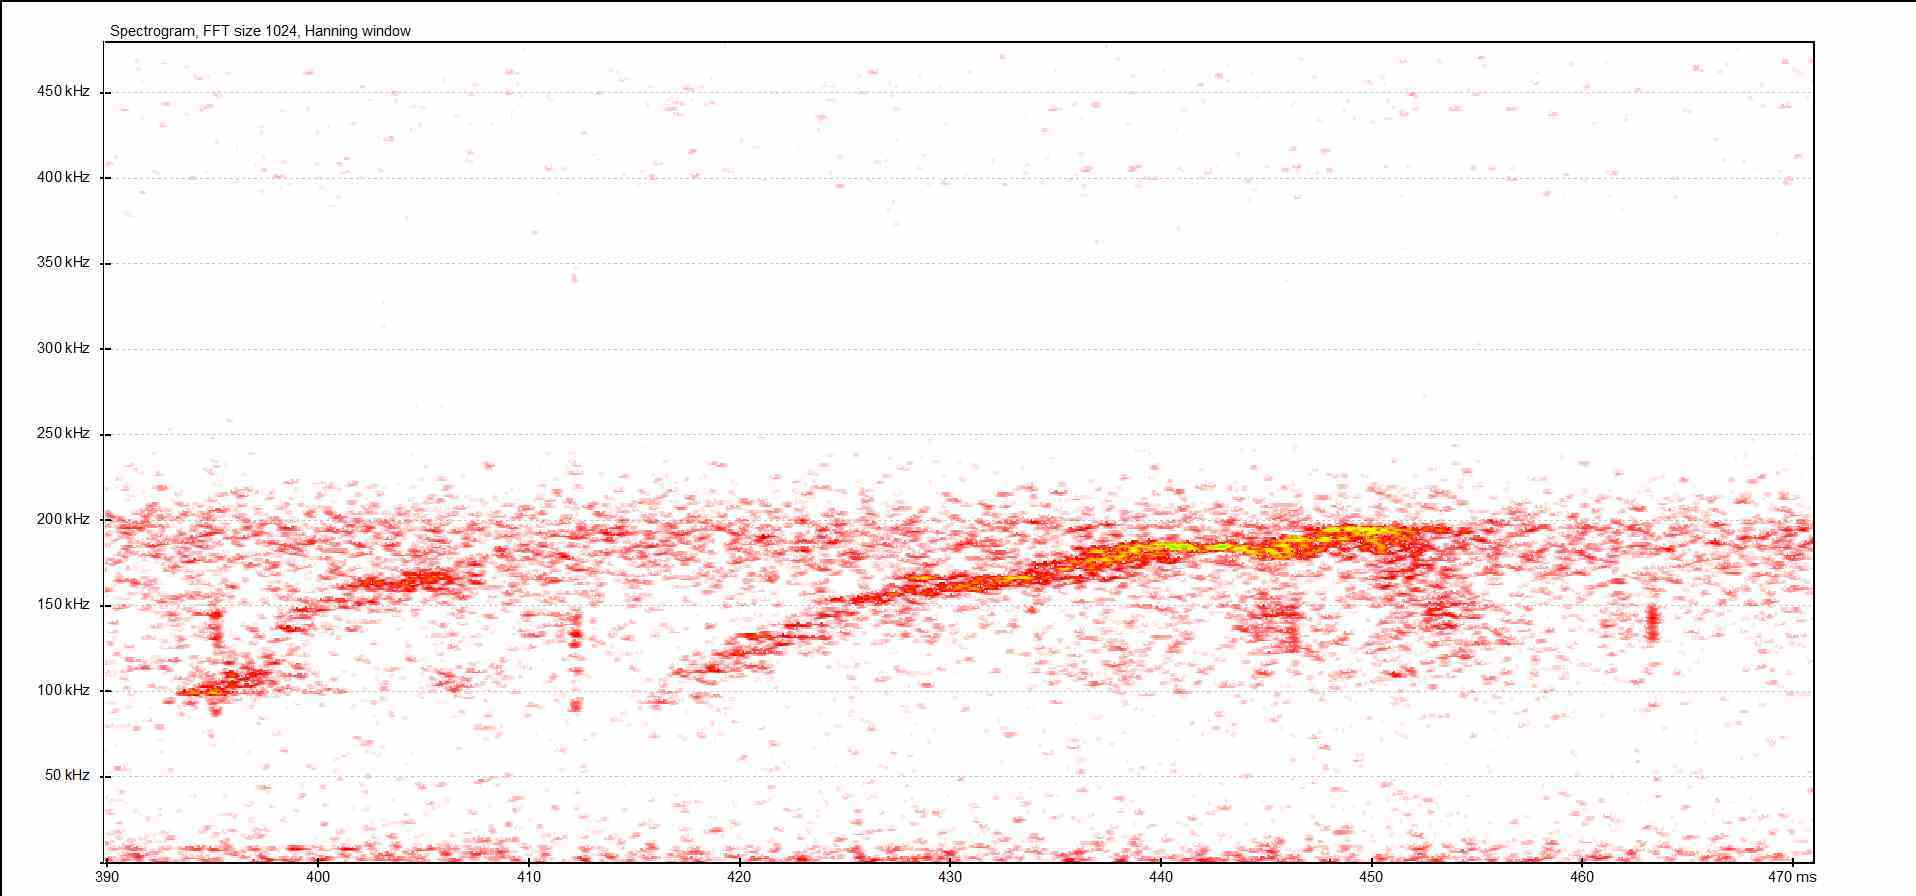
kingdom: Animalia
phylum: Chordata
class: Mammalia
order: Rodentia
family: Gliridae
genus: Muscardinus
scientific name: Muscardinus avellanarius
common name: Hazel dormouse
